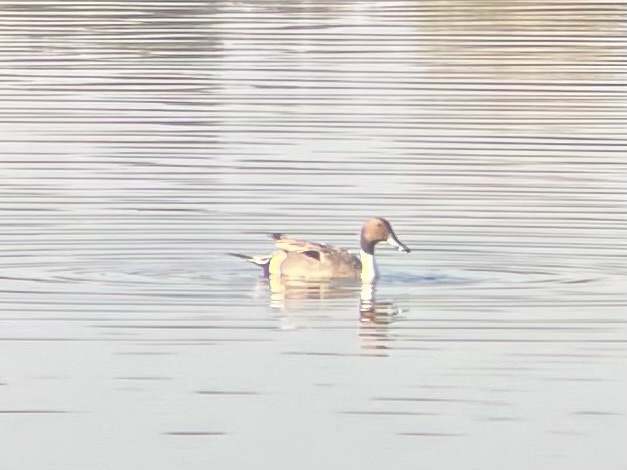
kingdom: Animalia
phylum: Chordata
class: Aves
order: Anseriformes
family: Anatidae
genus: Anas
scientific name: Anas acuta
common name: Northern pintail
